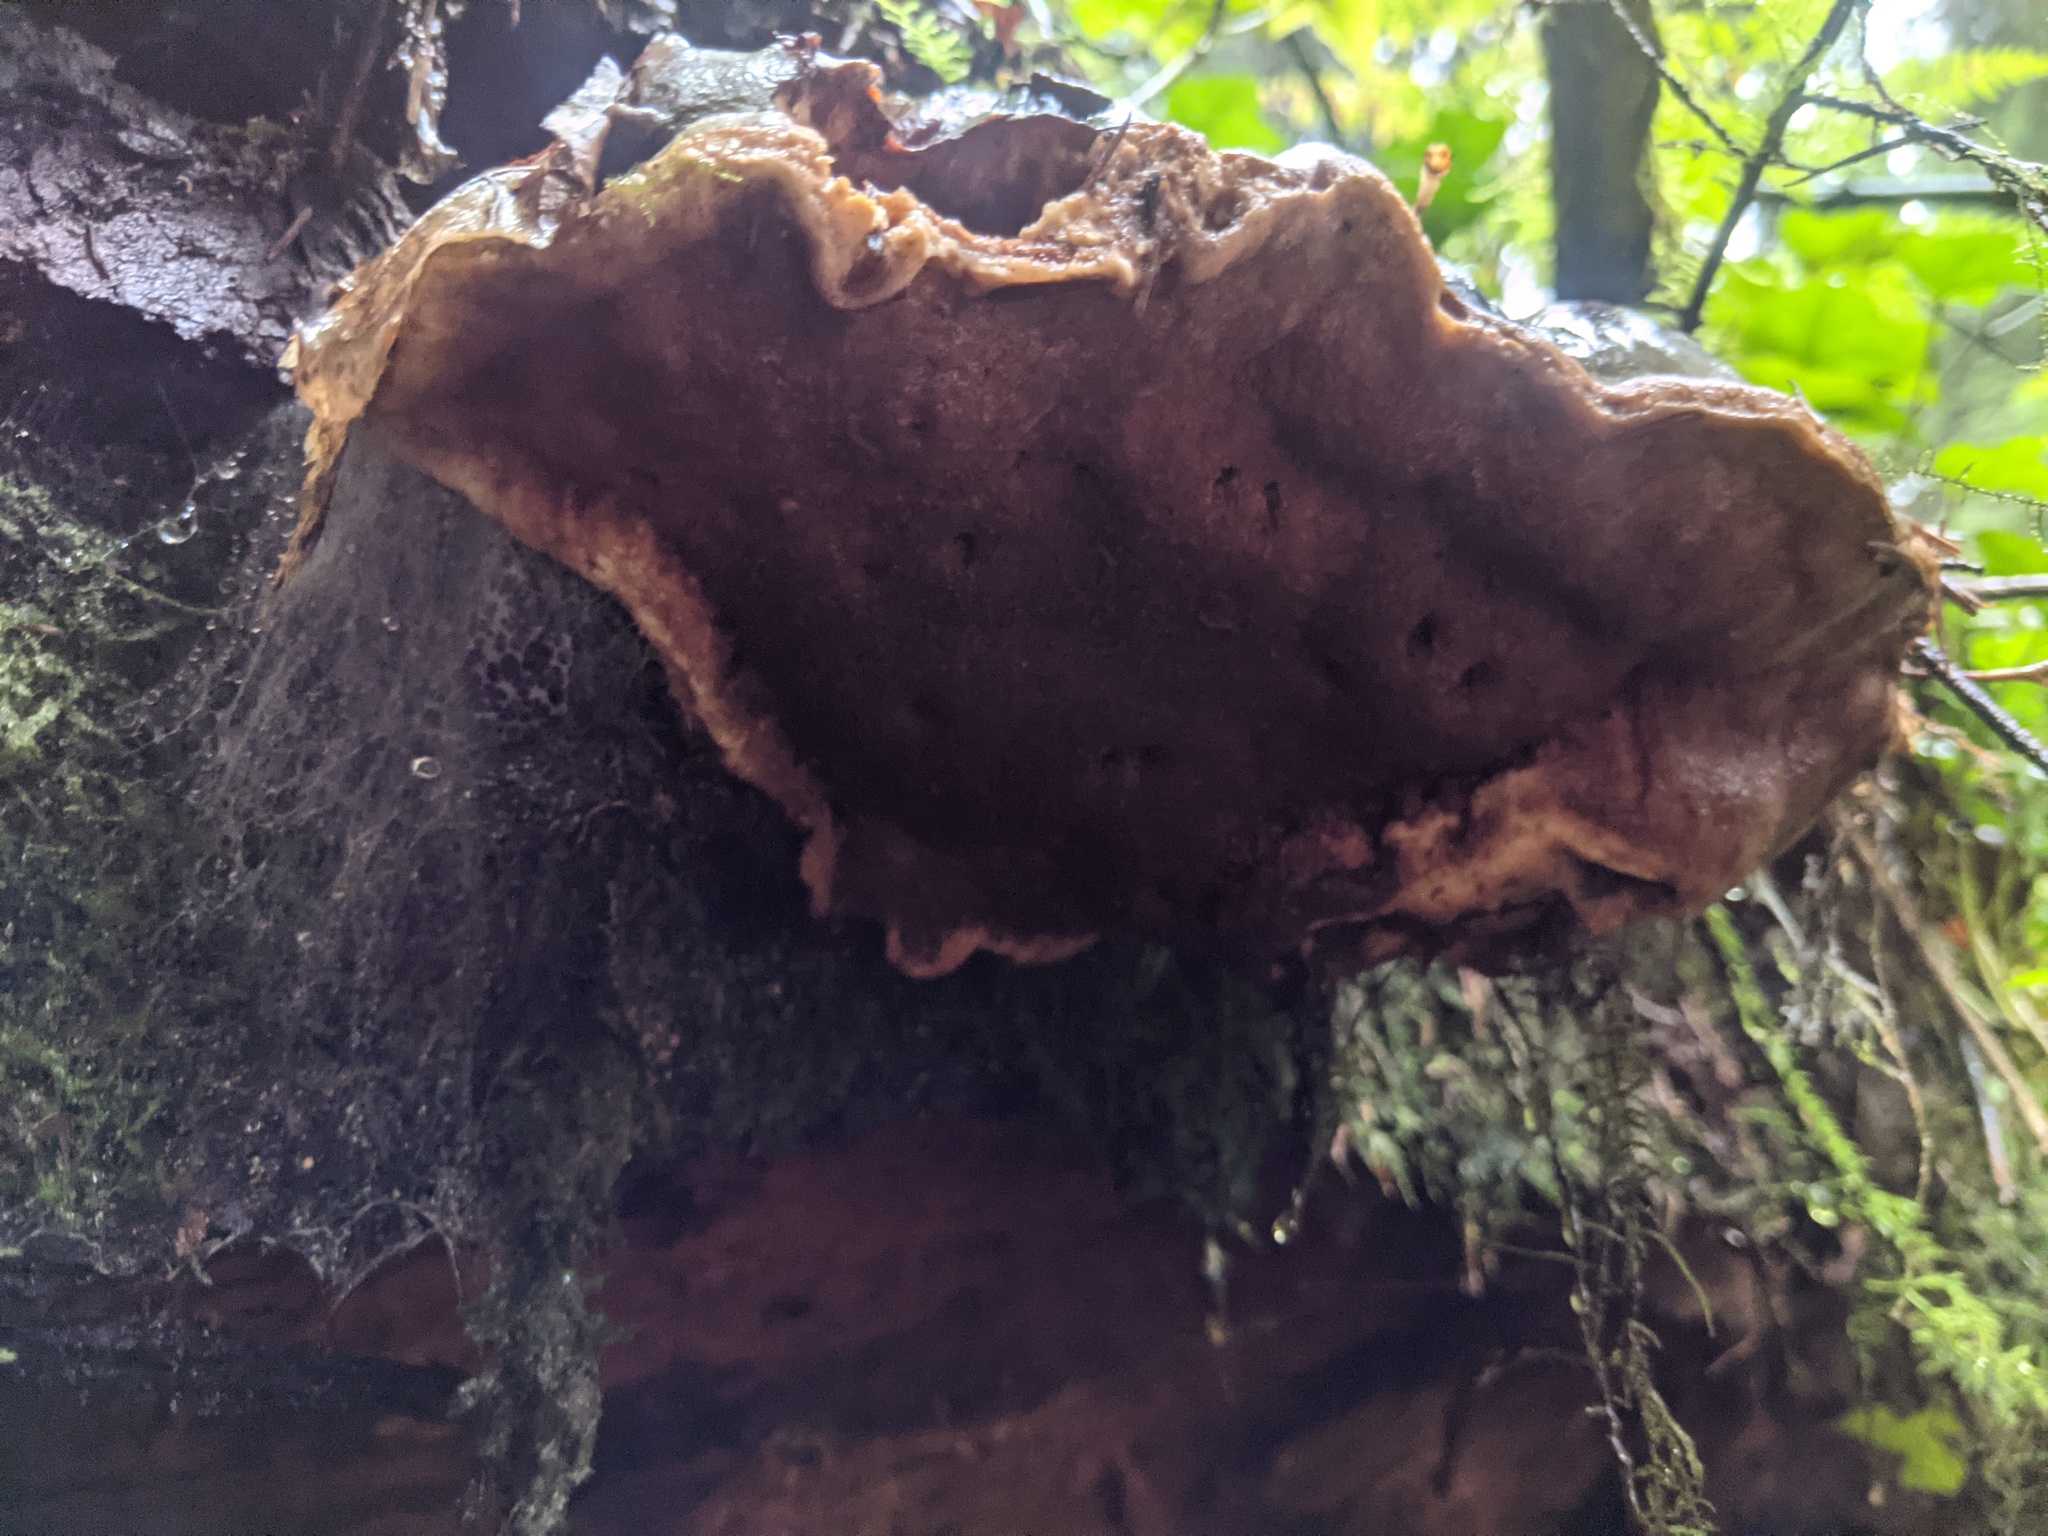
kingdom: Fungi
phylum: Basidiomycota
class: Agaricomycetes
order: Polyporales
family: Polyporaceae
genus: Ganoderma
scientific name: Ganoderma oregonense
